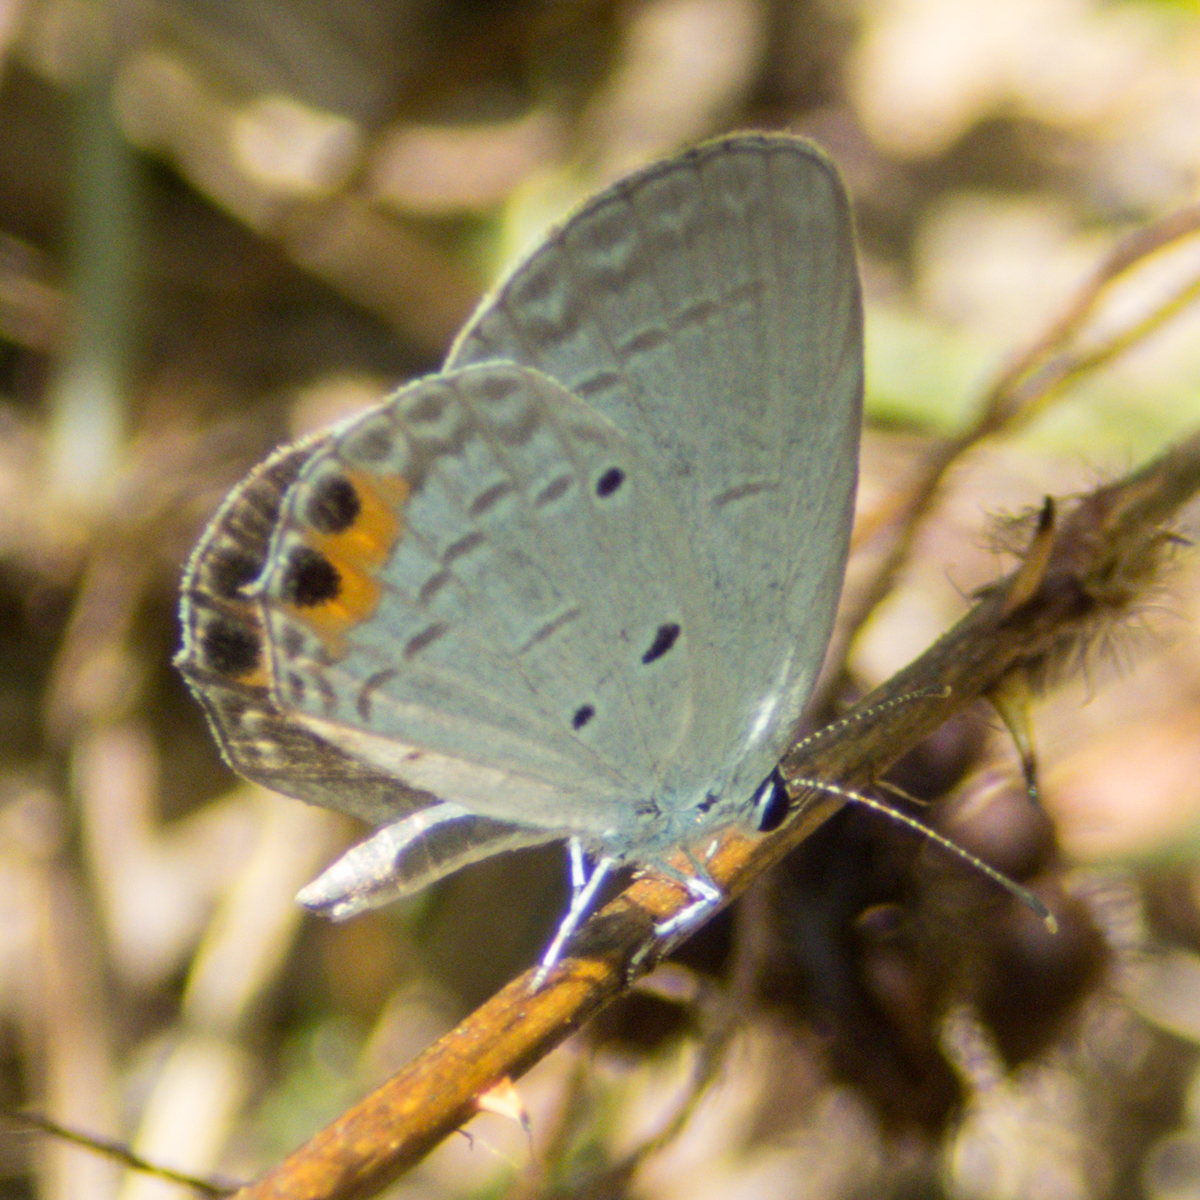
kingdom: Animalia
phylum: Arthropoda
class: Insecta
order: Lepidoptera
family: Lycaenidae
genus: Everes
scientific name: Everes lacturnus
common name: Orange-tipped pea-blue
